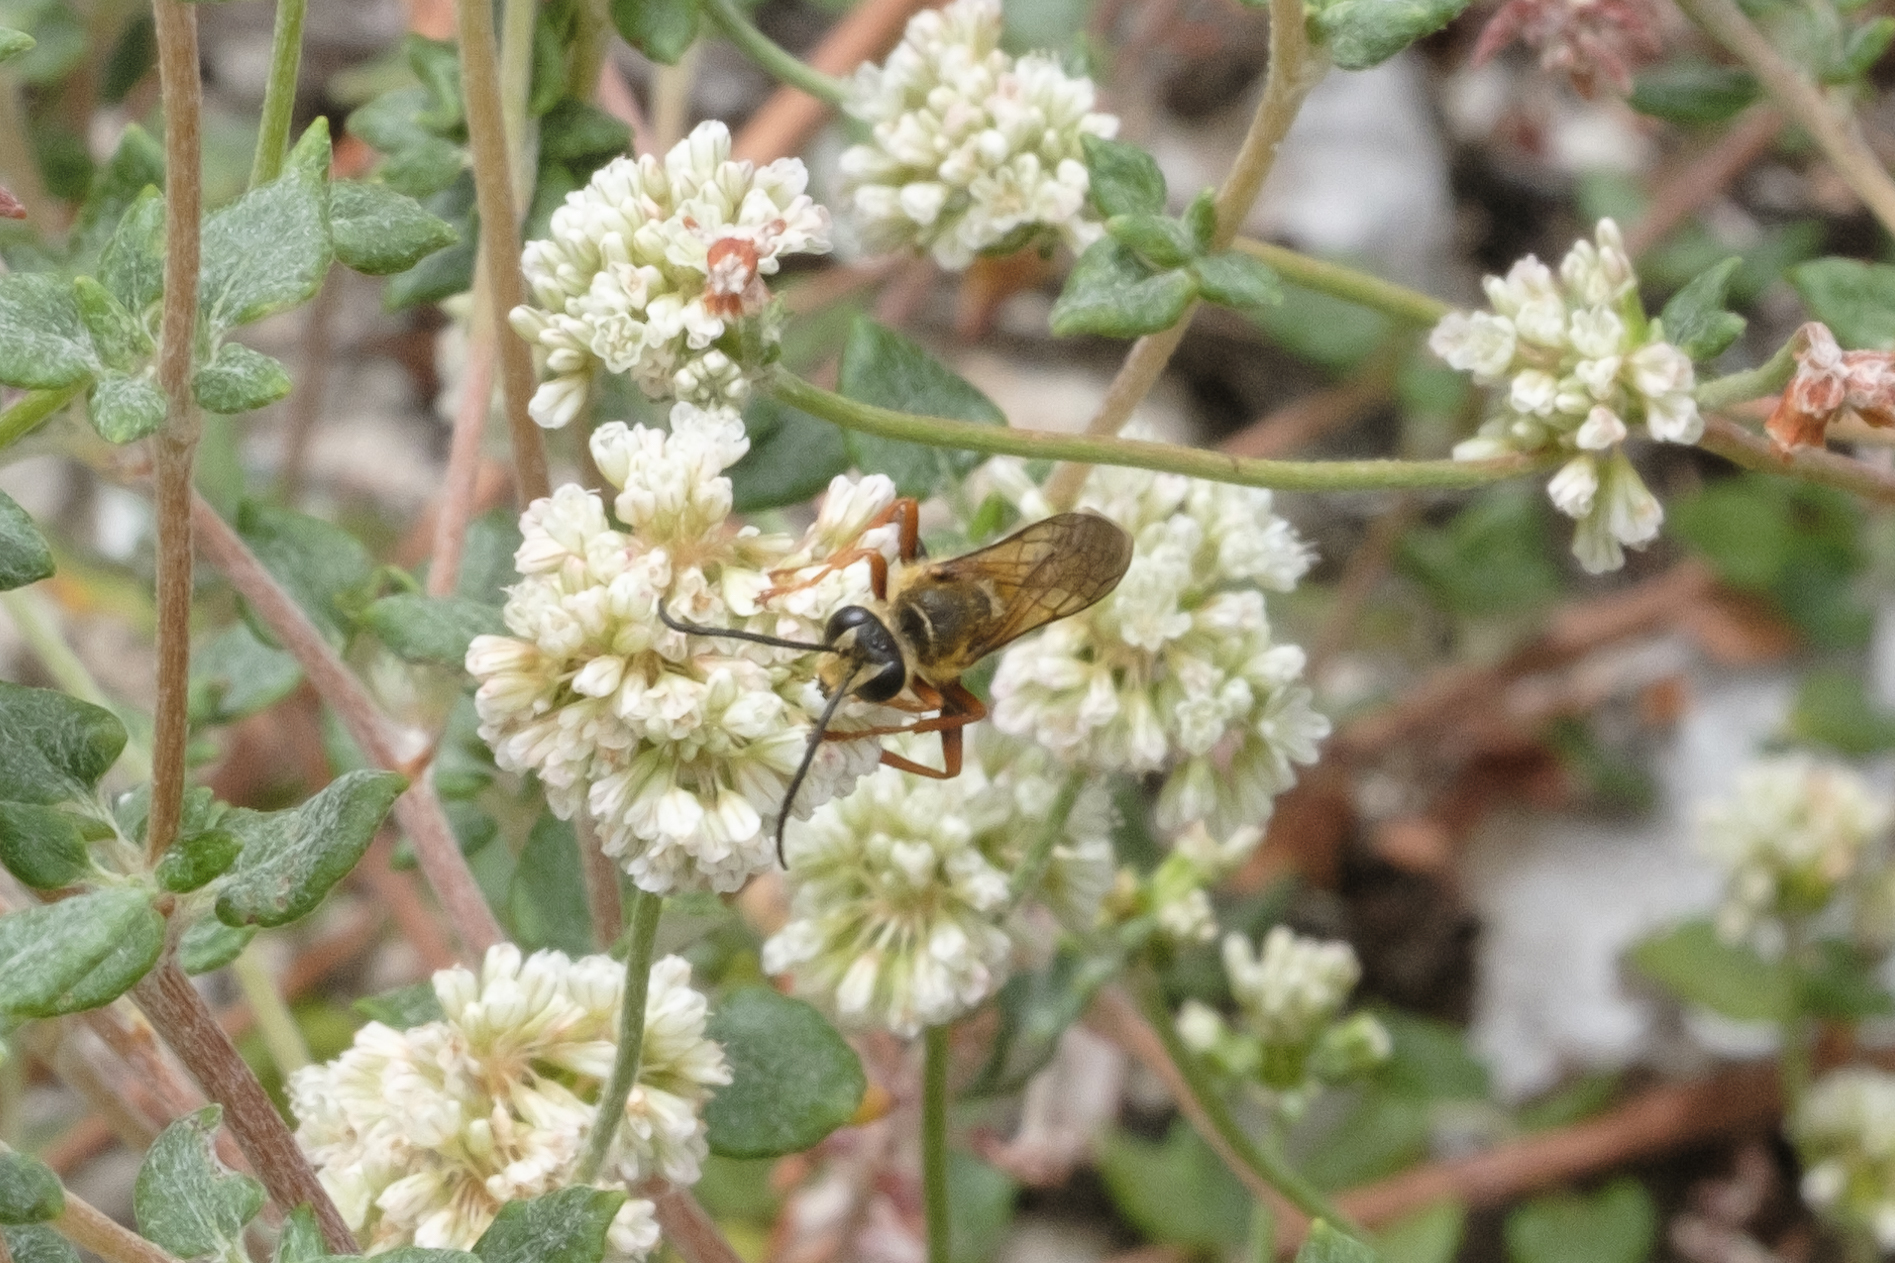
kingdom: Animalia
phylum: Arthropoda
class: Insecta
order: Hymenoptera
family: Sphecidae
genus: Sphex
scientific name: Sphex ichneumoneus
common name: Great golden digger wasp
